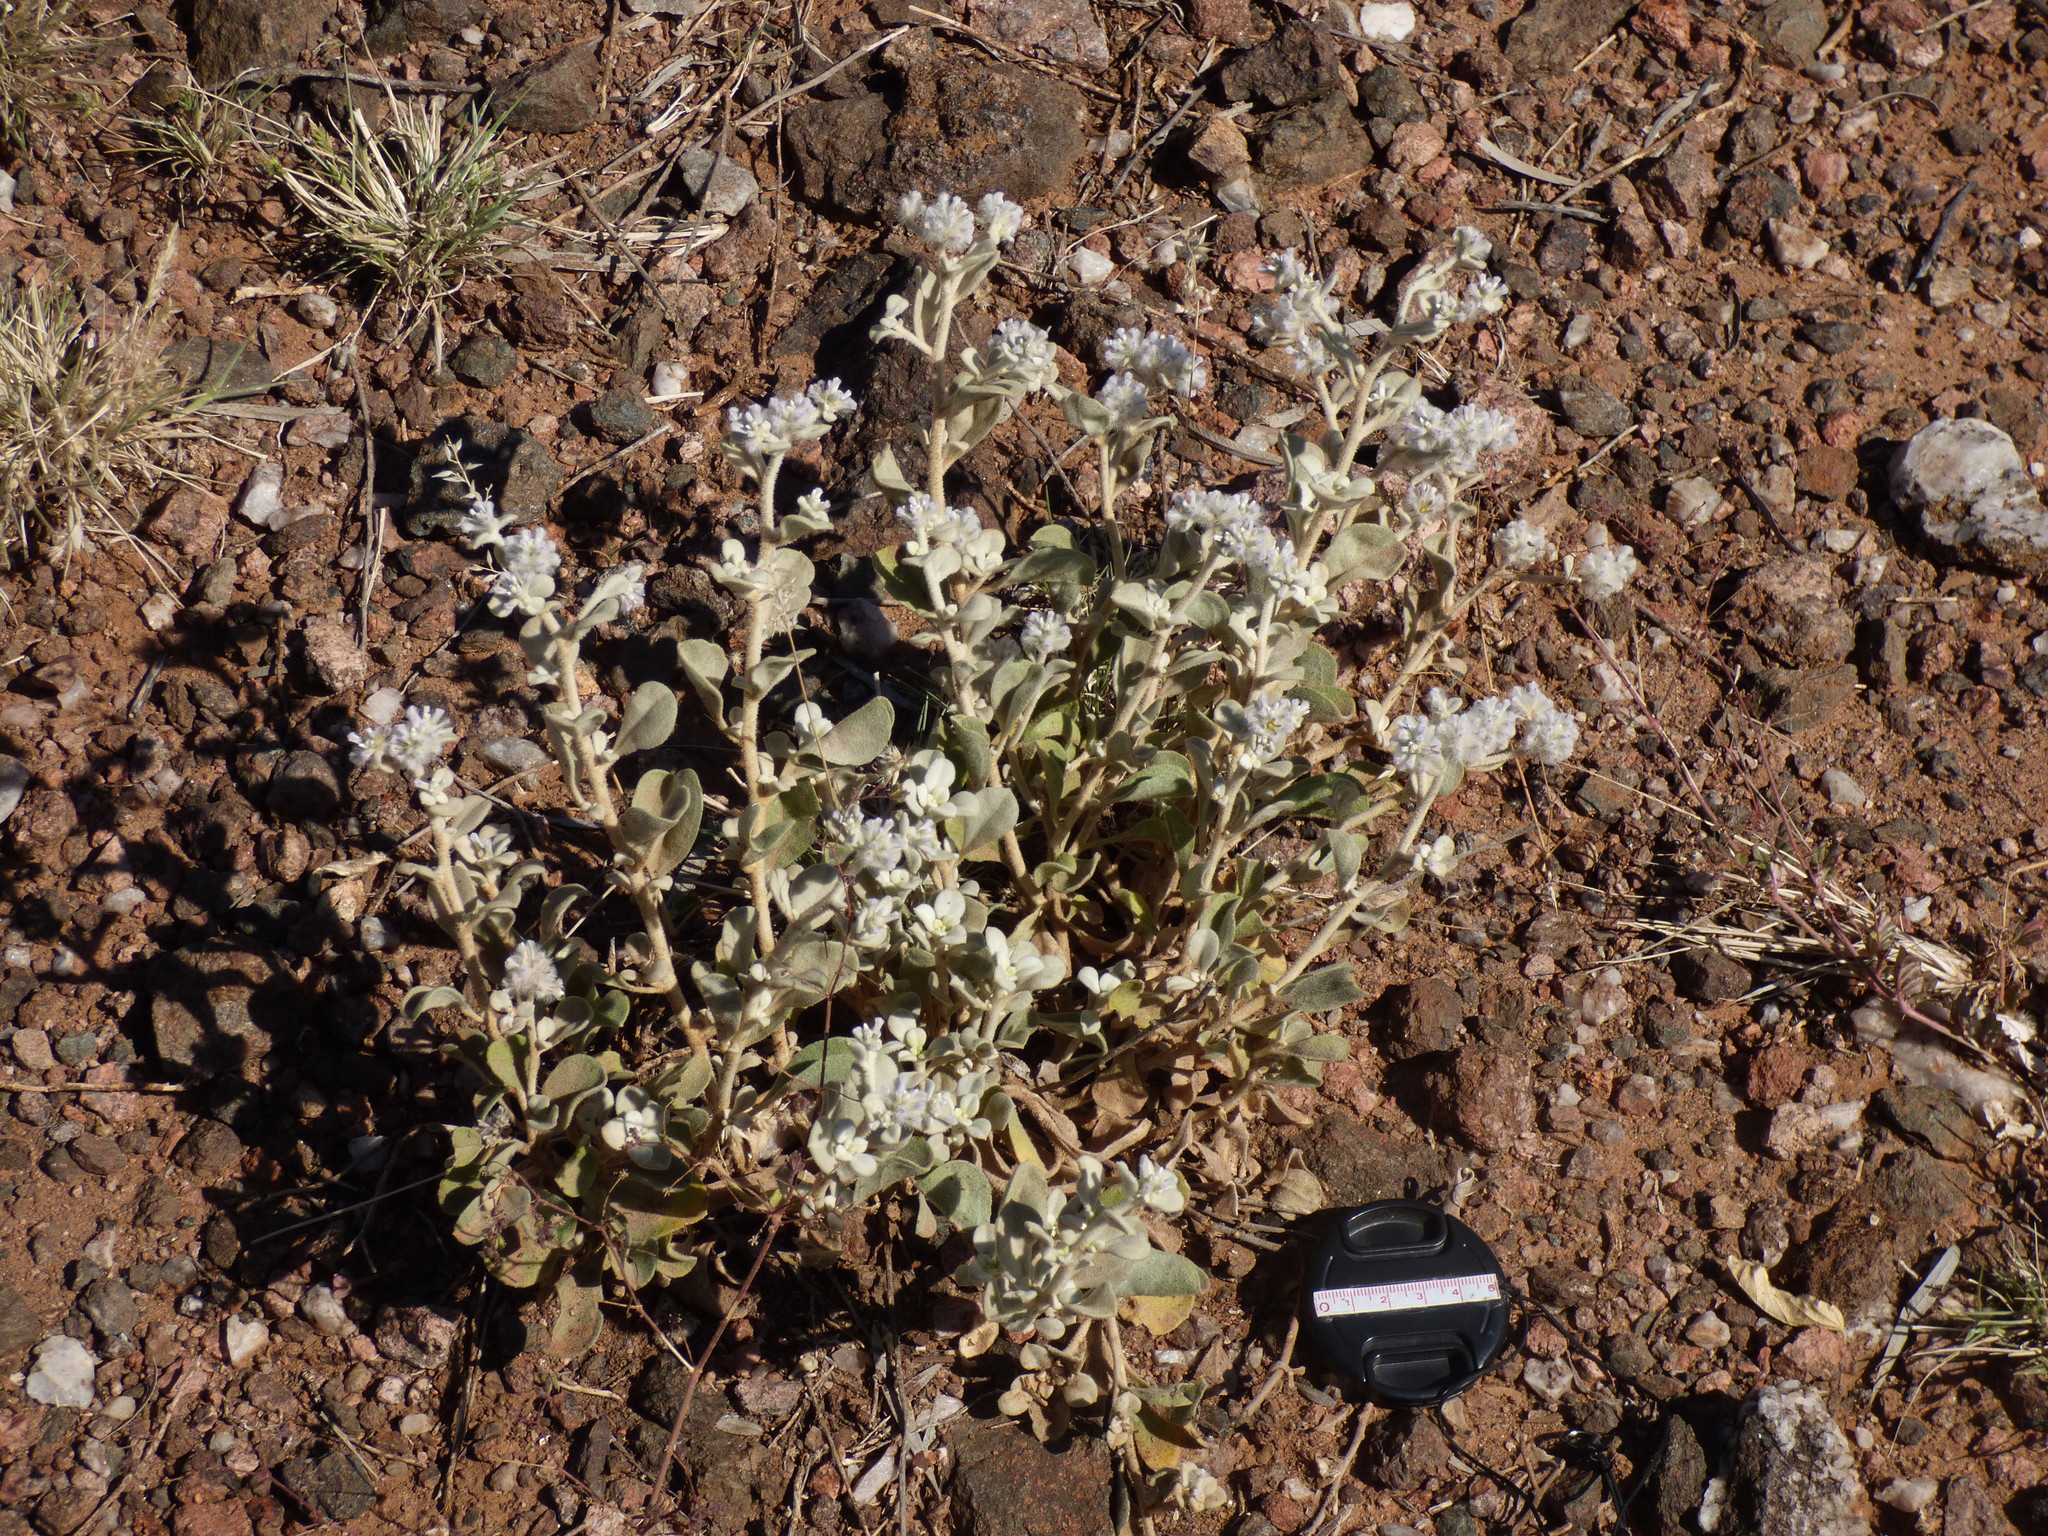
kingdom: Plantae
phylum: Tracheophyta
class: Magnoliopsida
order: Caryophyllales
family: Amaranthaceae
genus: Ptilotus
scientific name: Ptilotus obovatus
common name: Cottonbush
